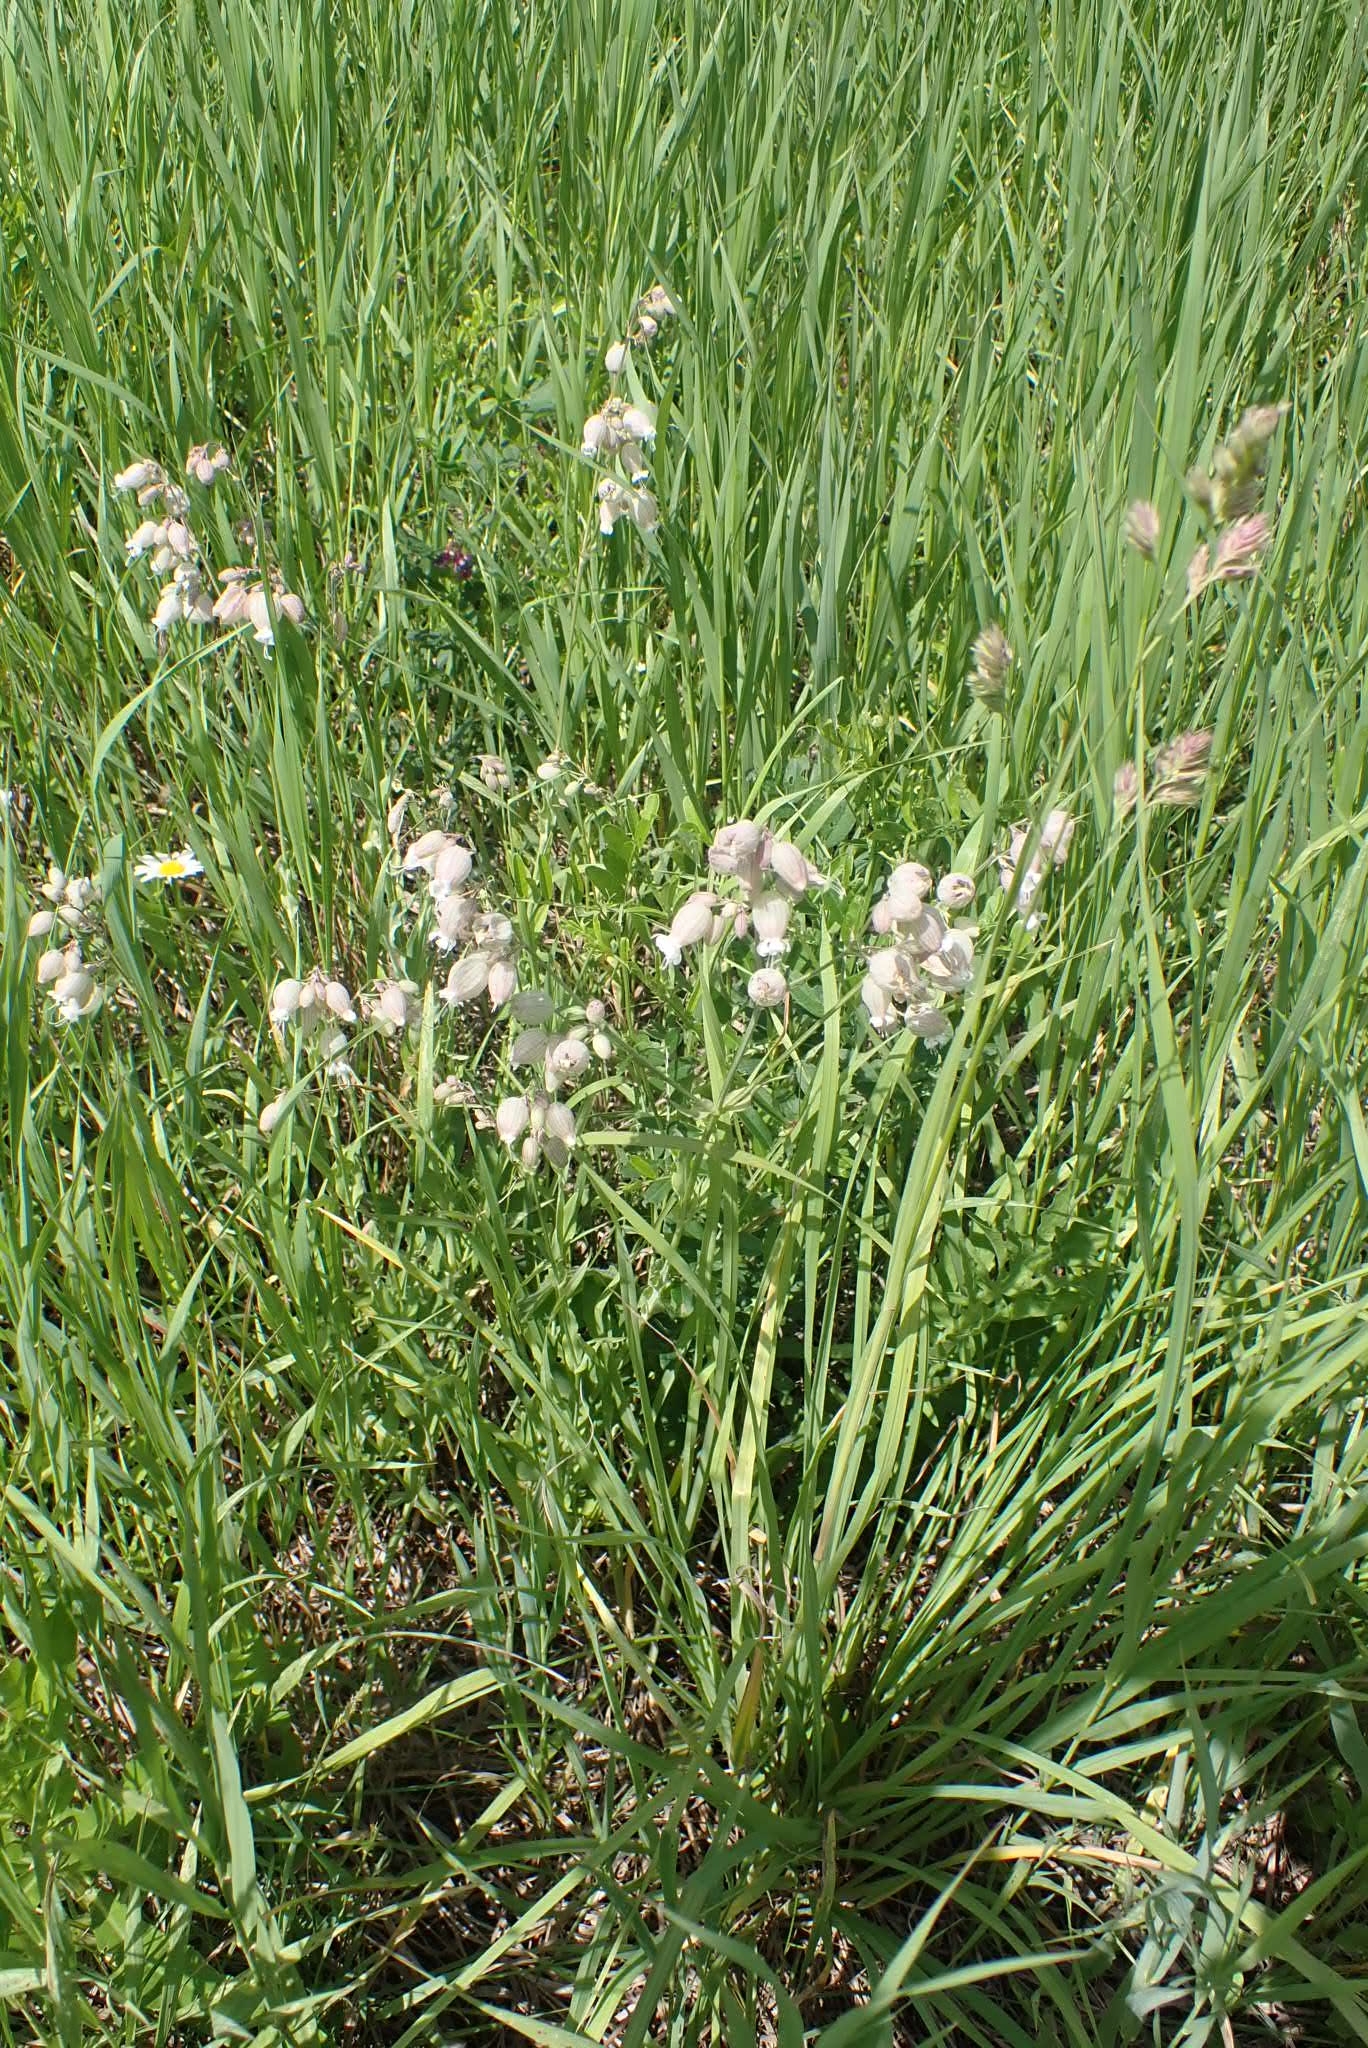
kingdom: Plantae
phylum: Tracheophyta
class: Magnoliopsida
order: Caryophyllales
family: Caryophyllaceae
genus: Silene
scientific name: Silene vulgaris
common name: Bladder campion
